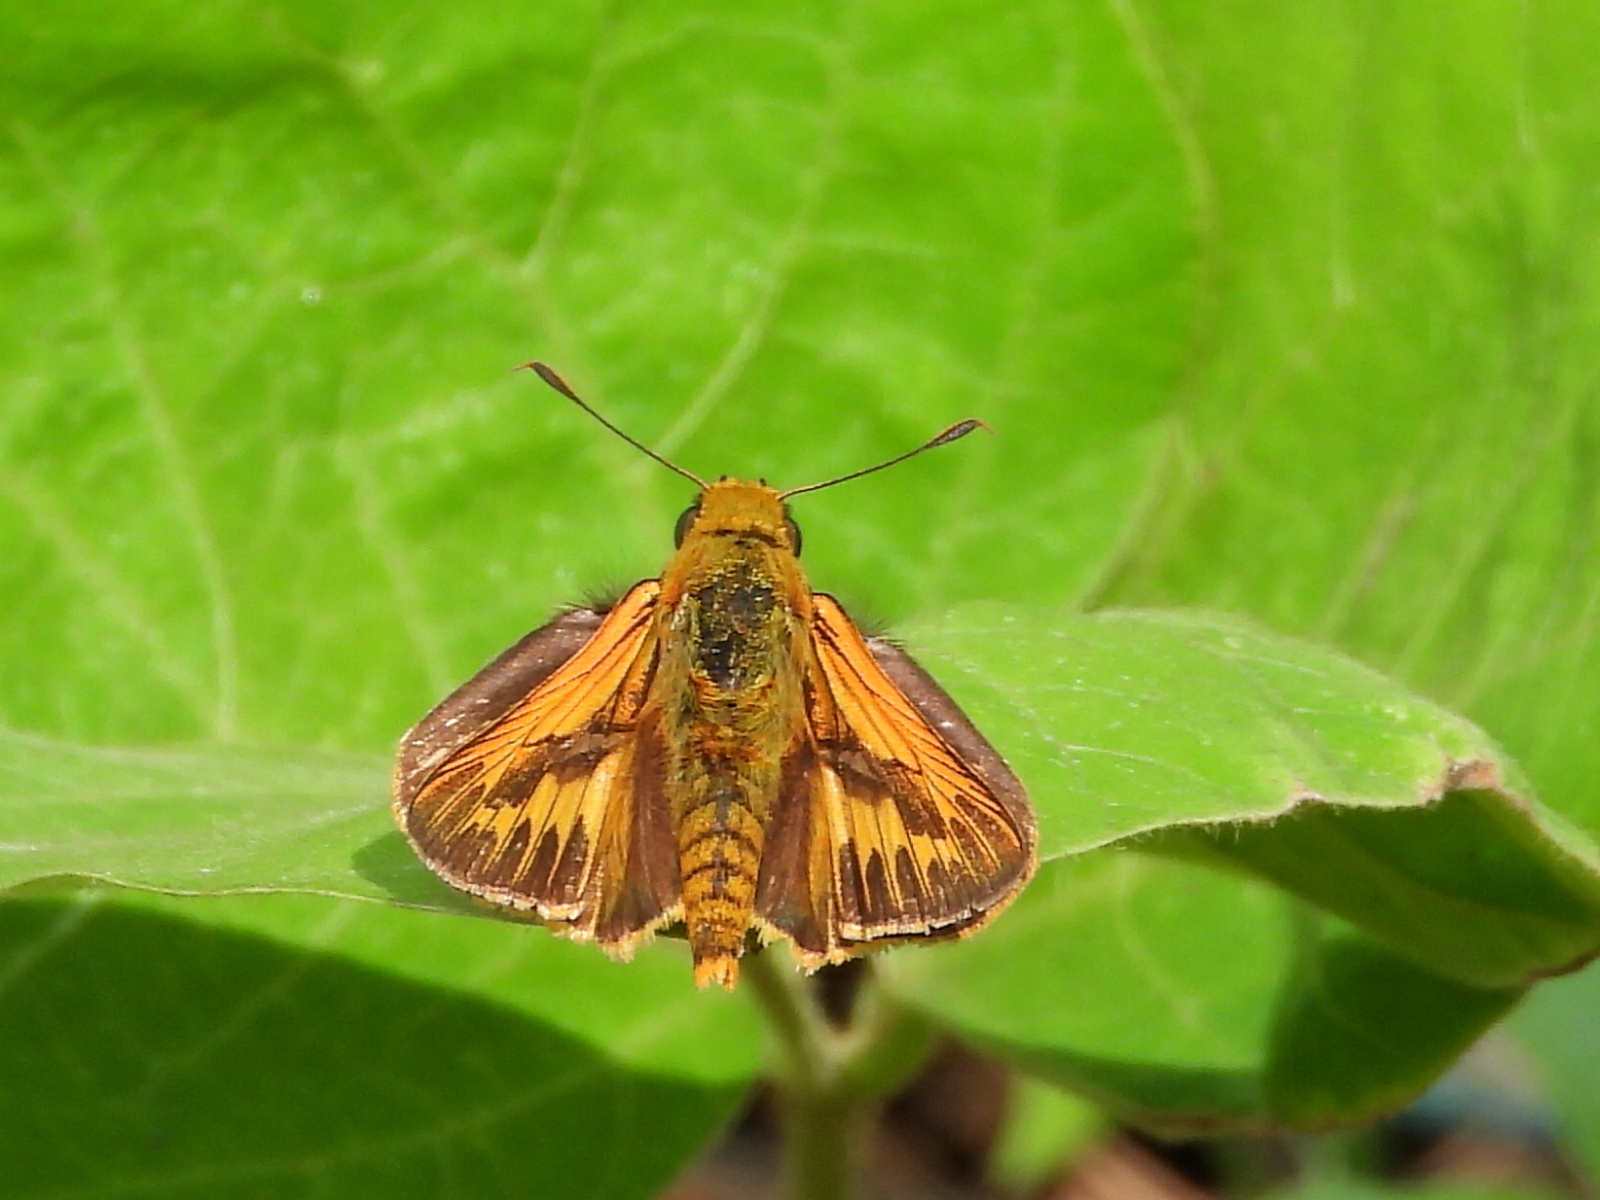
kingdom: Animalia
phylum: Arthropoda
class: Insecta
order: Lepidoptera
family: Hesperiidae
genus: Telicota
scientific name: Telicota colon
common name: Pale palm dart
